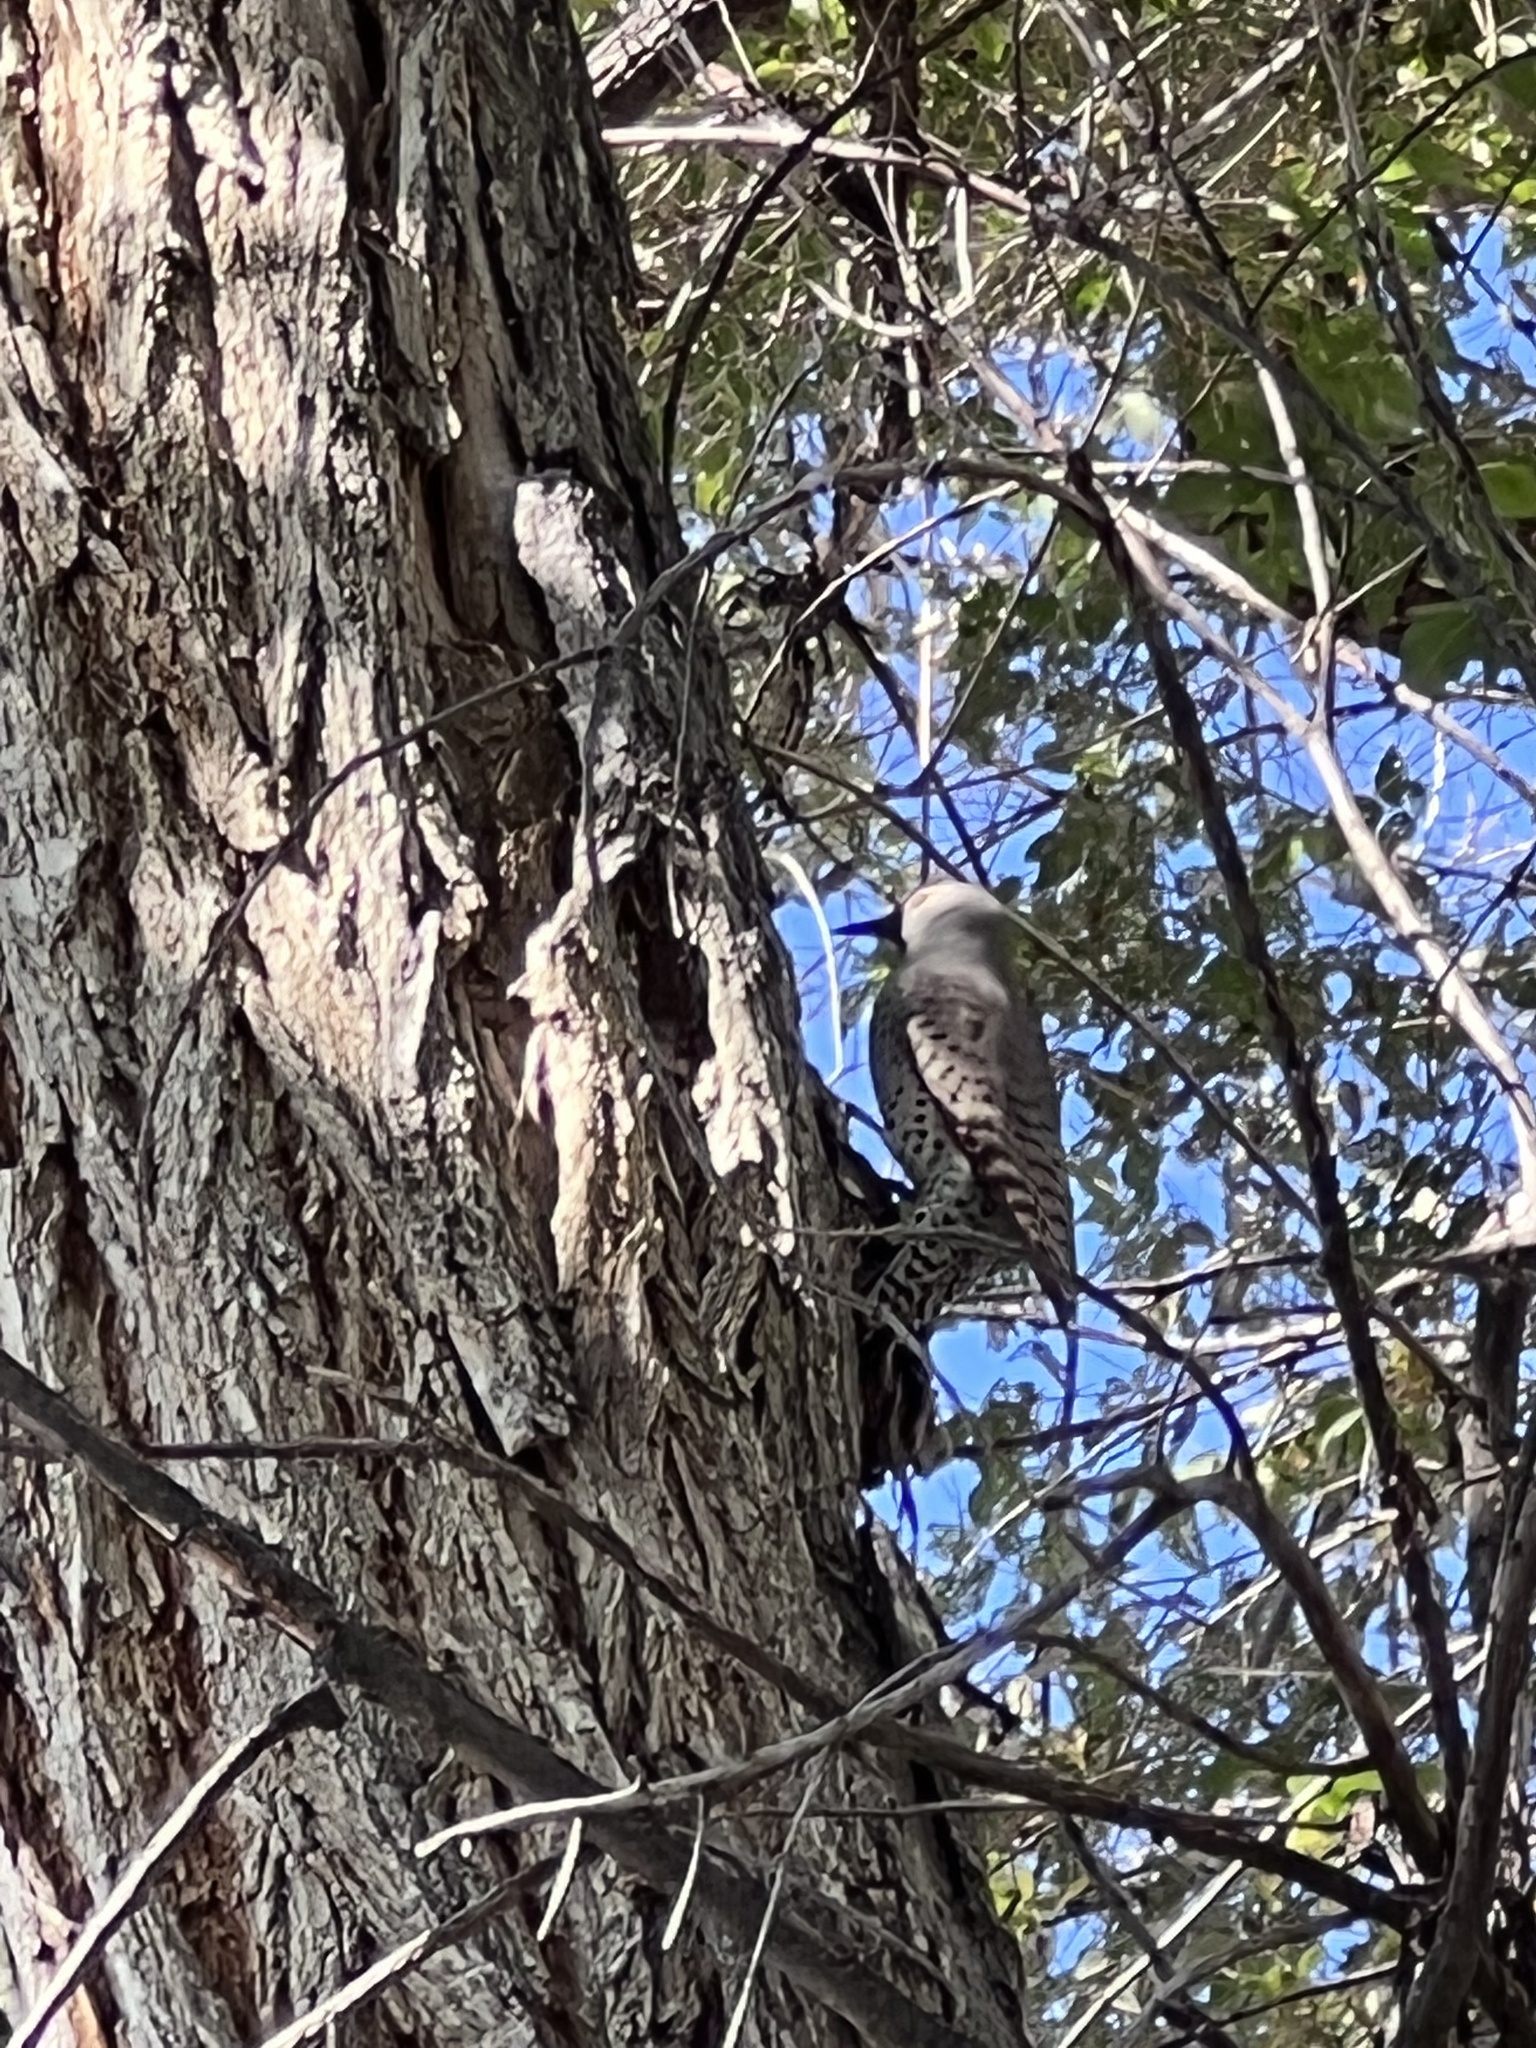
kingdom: Animalia
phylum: Chordata
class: Aves
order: Piciformes
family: Picidae
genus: Colaptes
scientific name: Colaptes auratus
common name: Northern flicker
